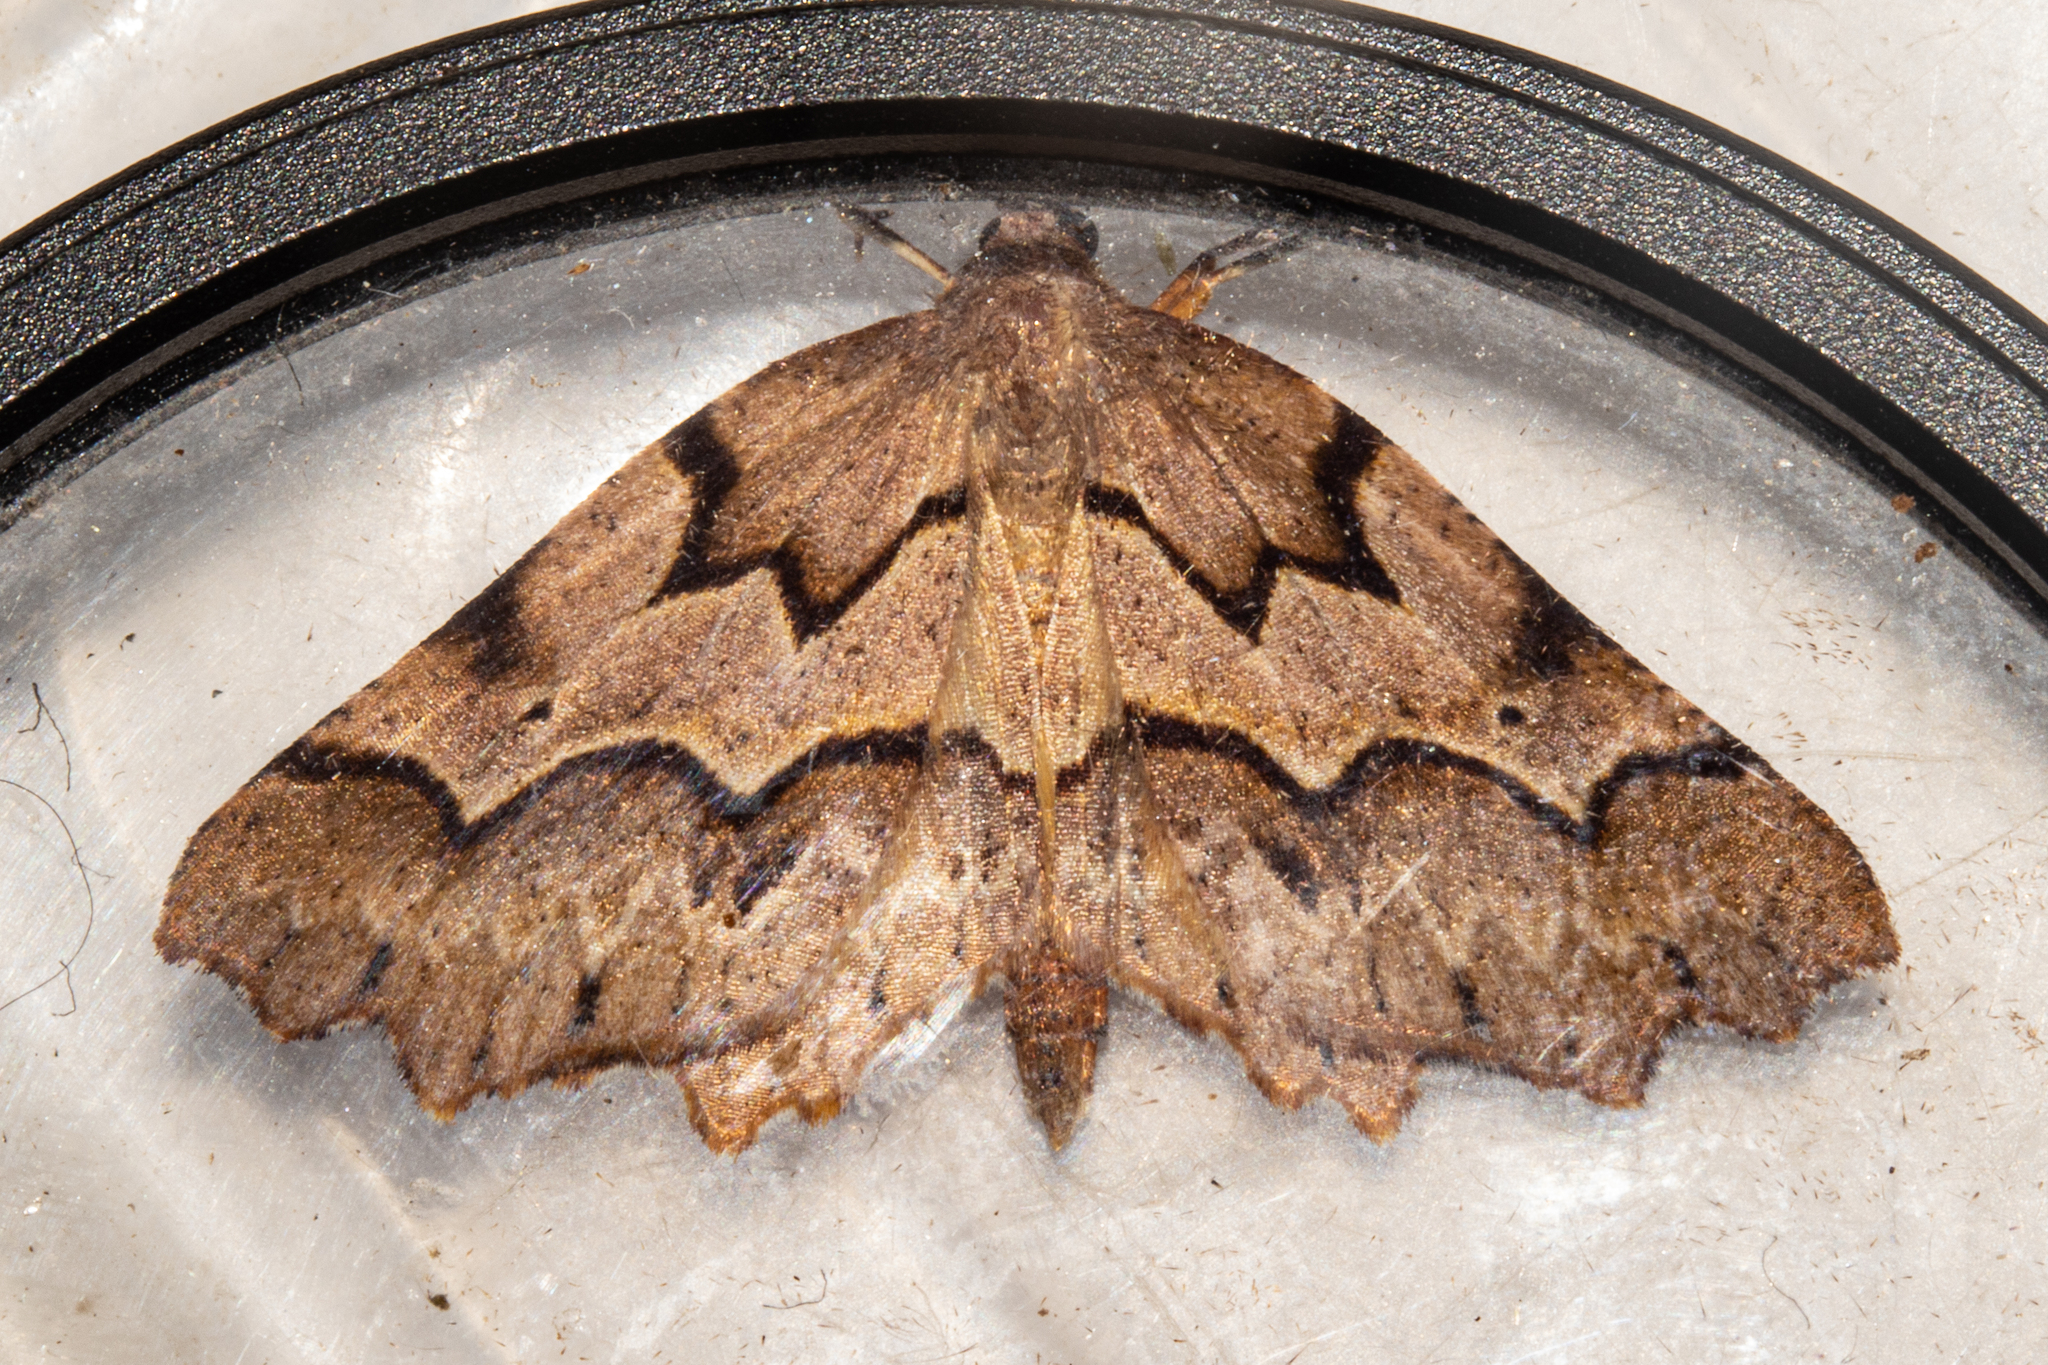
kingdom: Animalia
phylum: Arthropoda
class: Insecta
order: Lepidoptera
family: Geometridae
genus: Ischalis
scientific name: Ischalis fortinata
